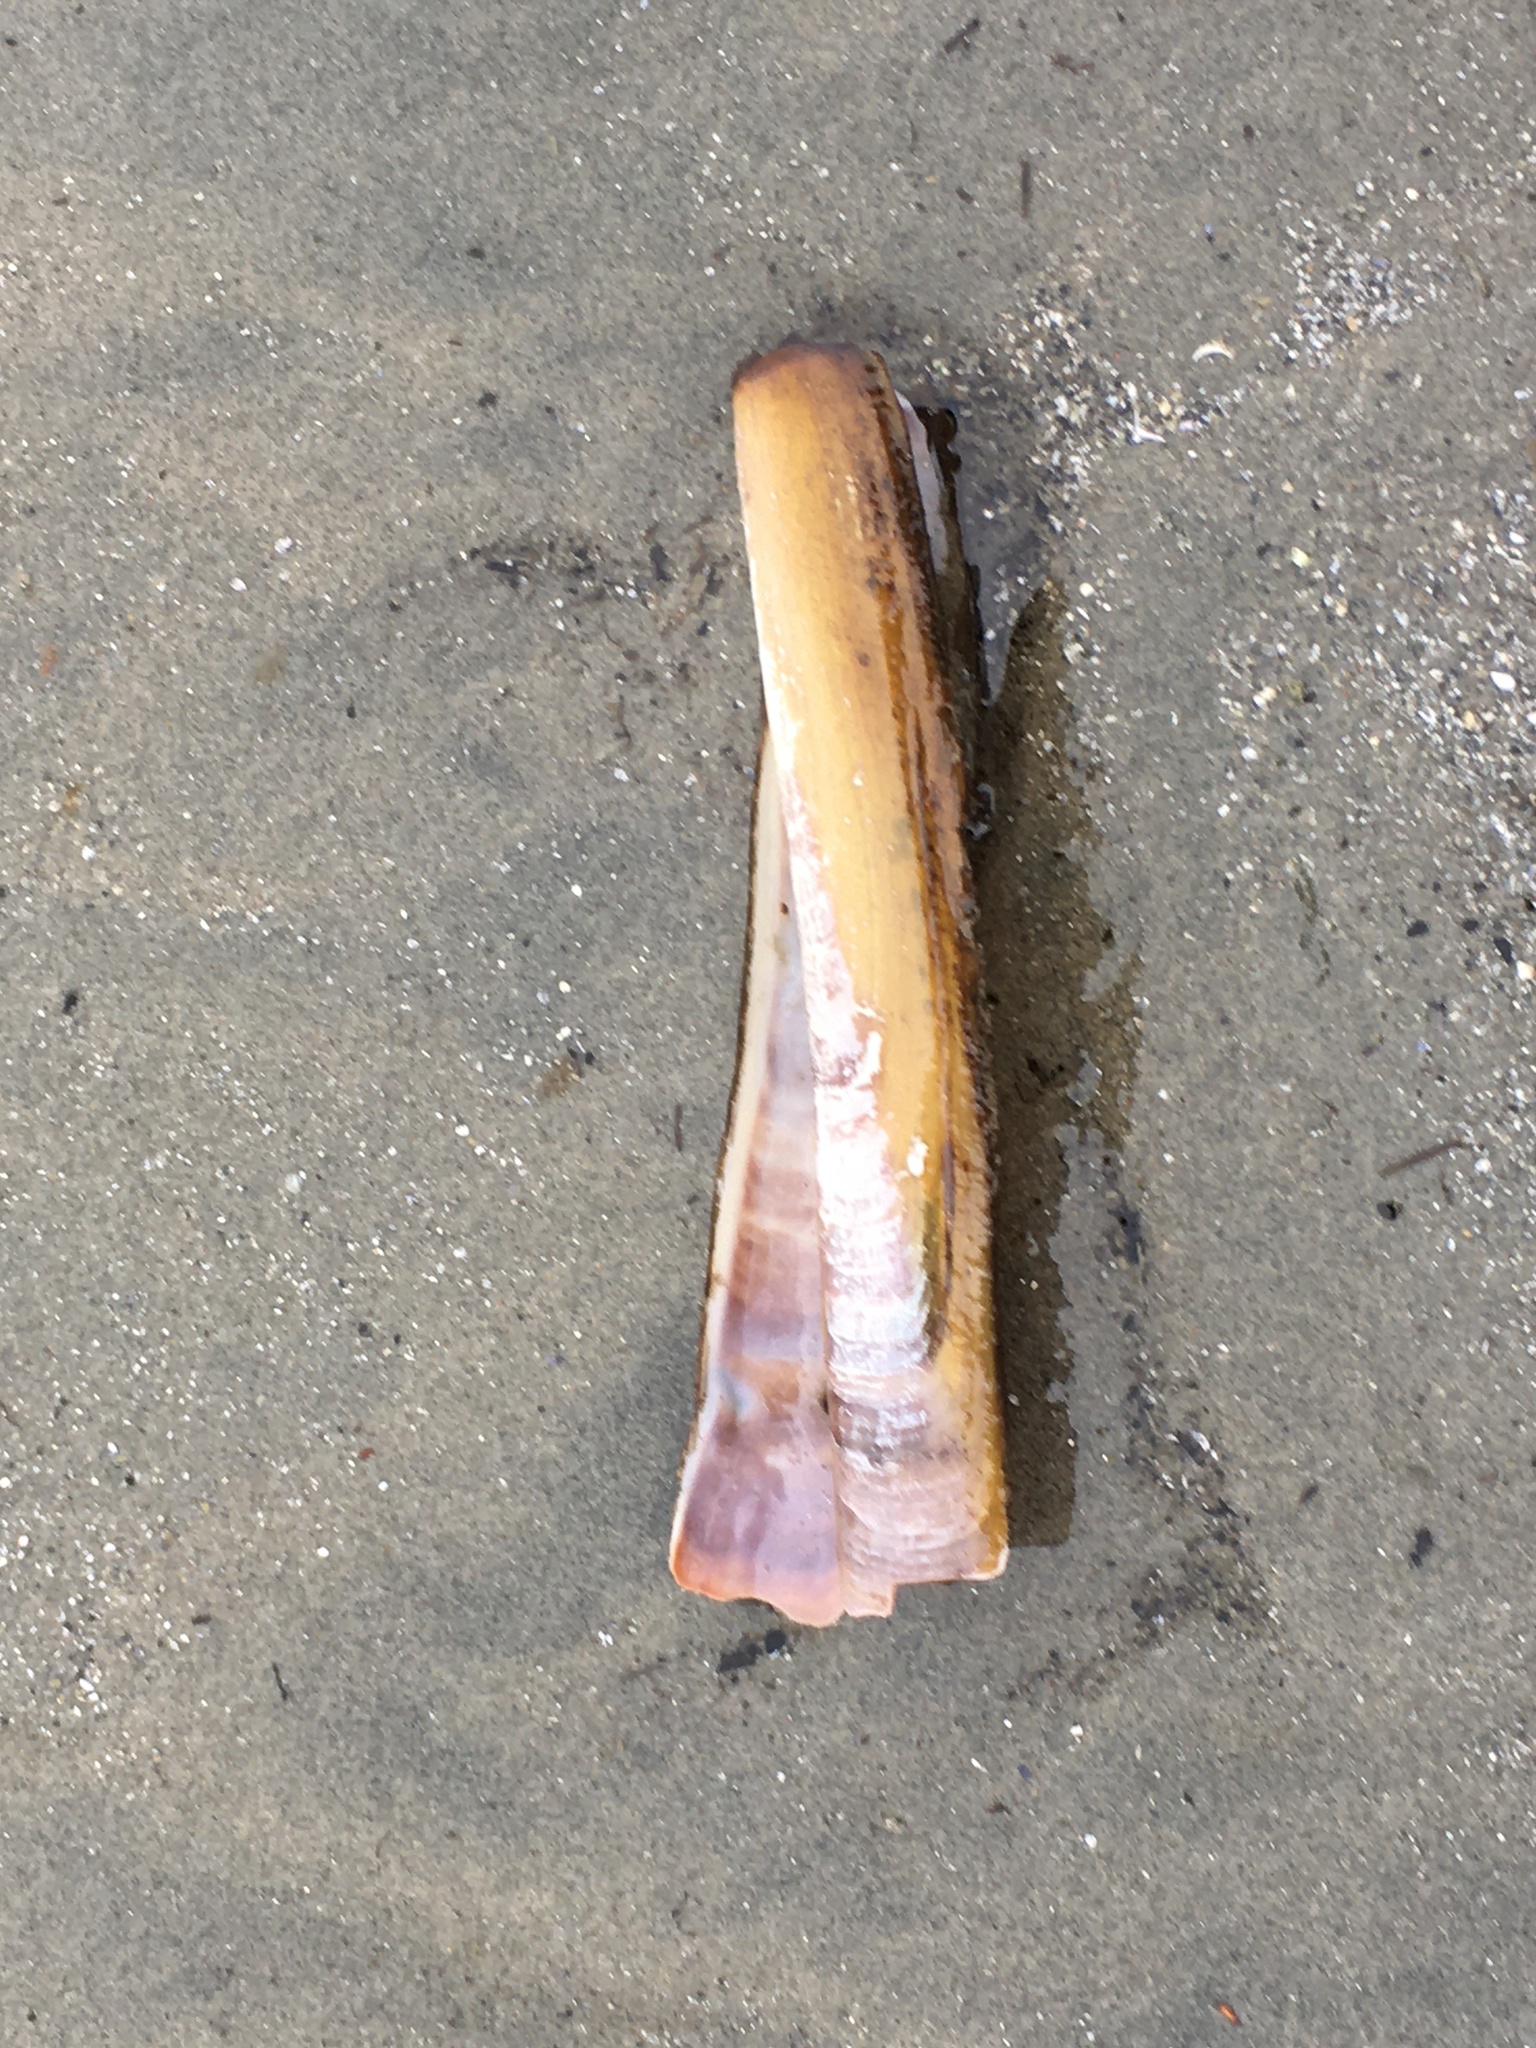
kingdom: Animalia
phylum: Mollusca
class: Bivalvia
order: Adapedonta
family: Pharidae
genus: Ensis
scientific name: Ensis leei
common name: American jack knife clam
